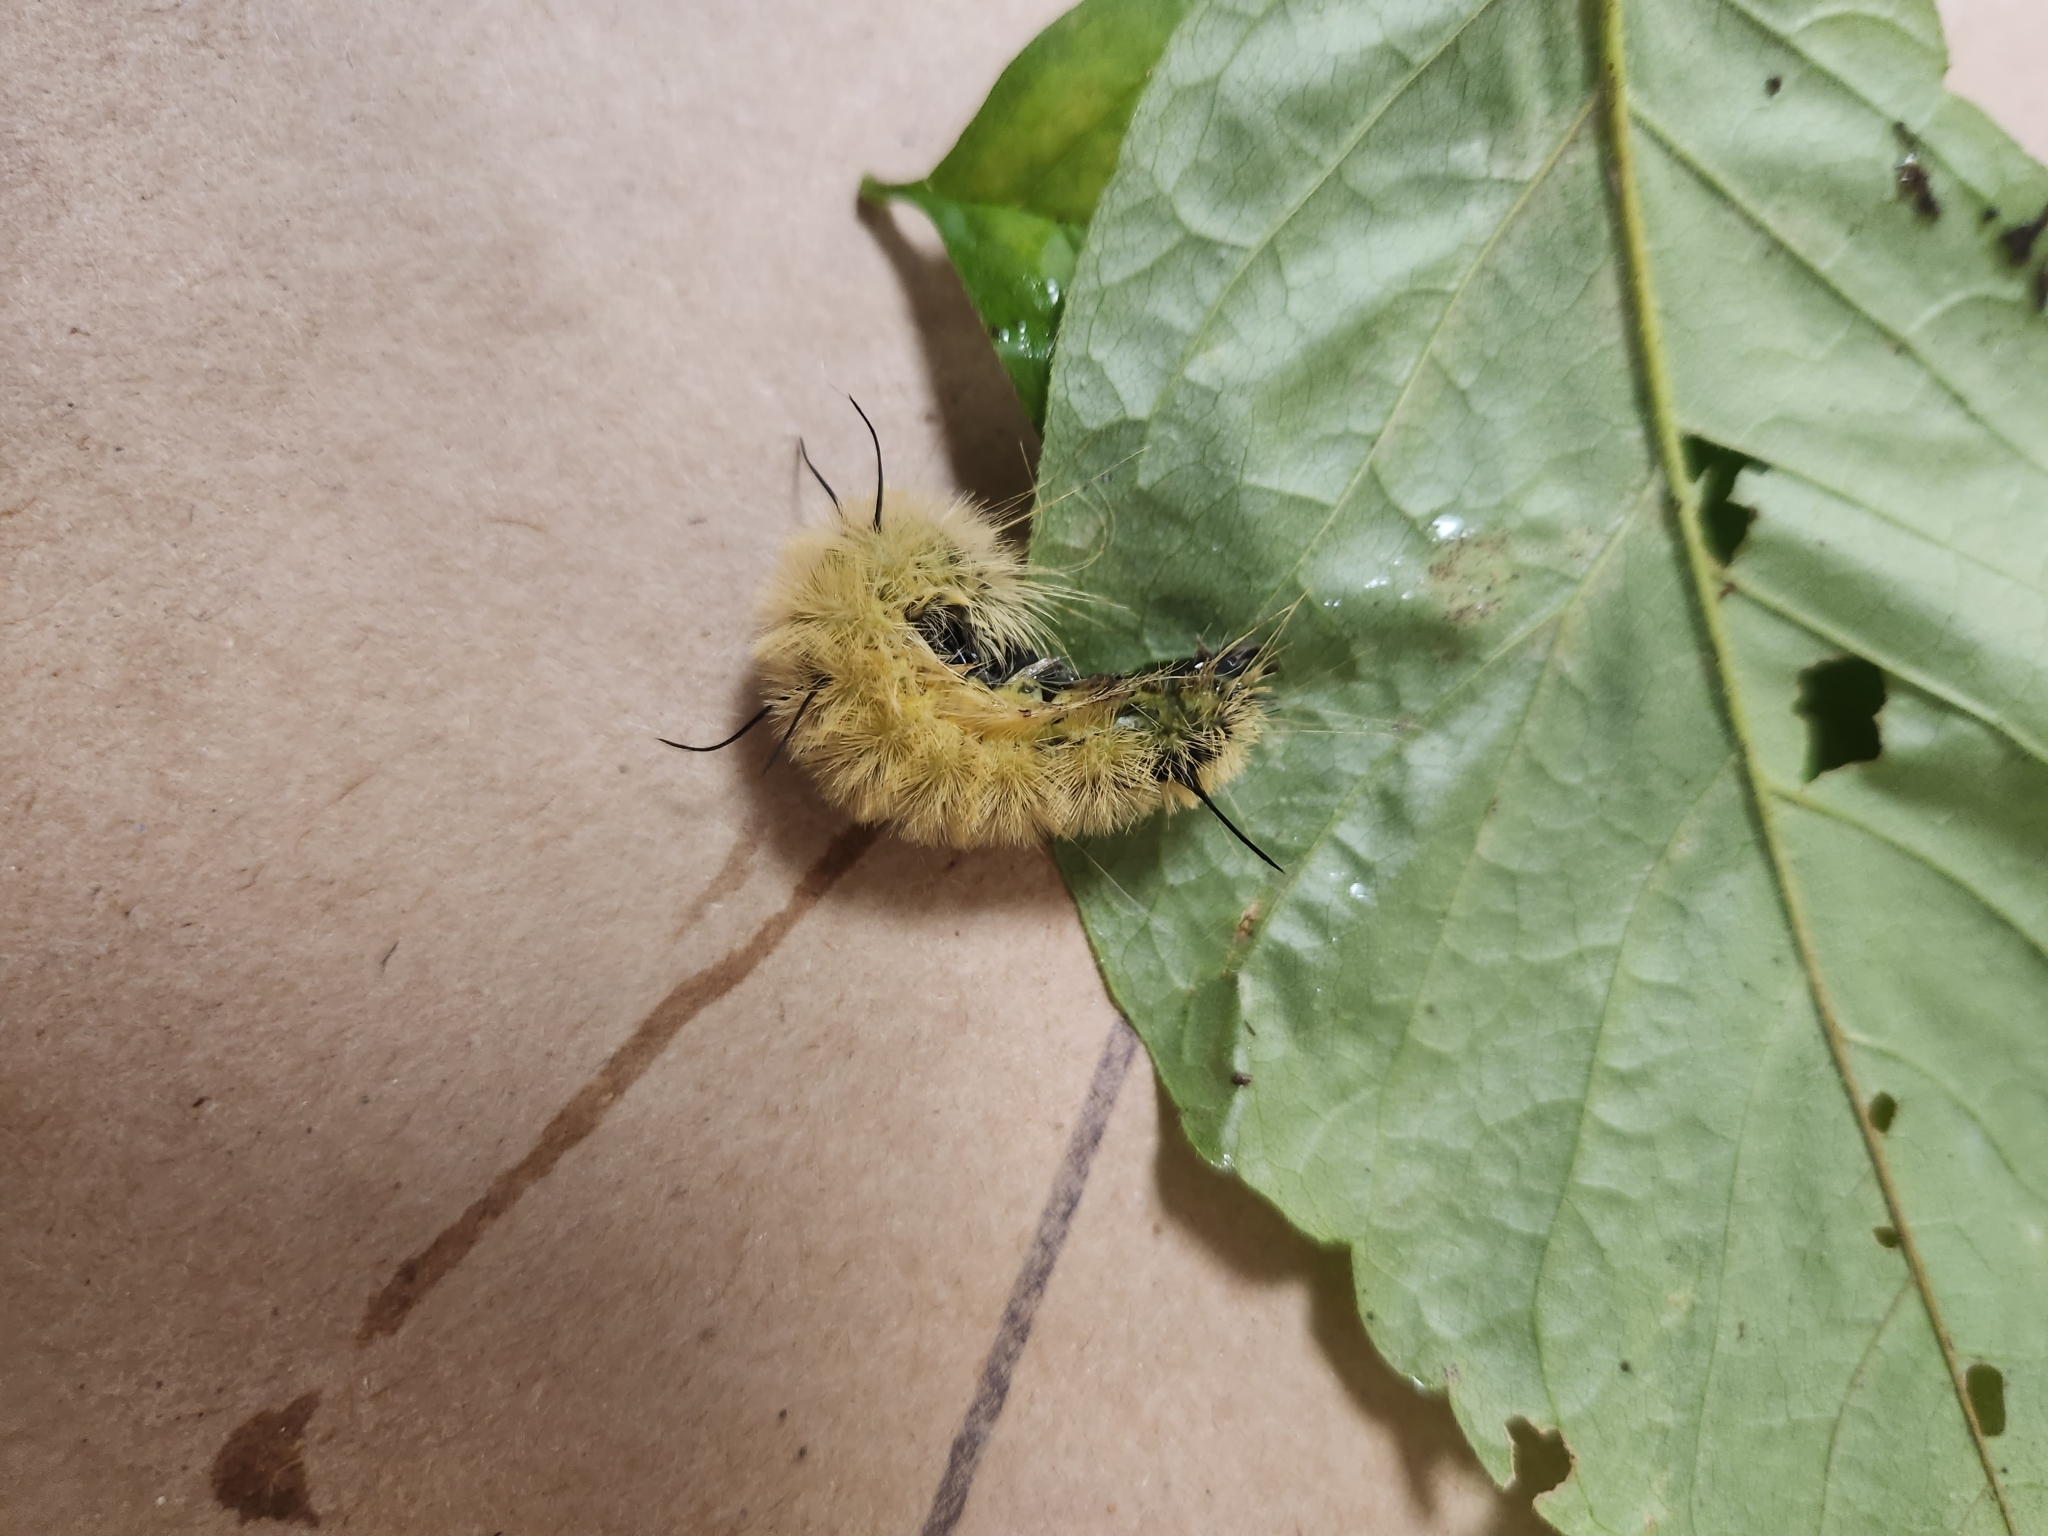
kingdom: Animalia
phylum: Arthropoda
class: Insecta
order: Lepidoptera
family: Noctuidae
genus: Acronicta
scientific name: Acronicta americana
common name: American dagger
